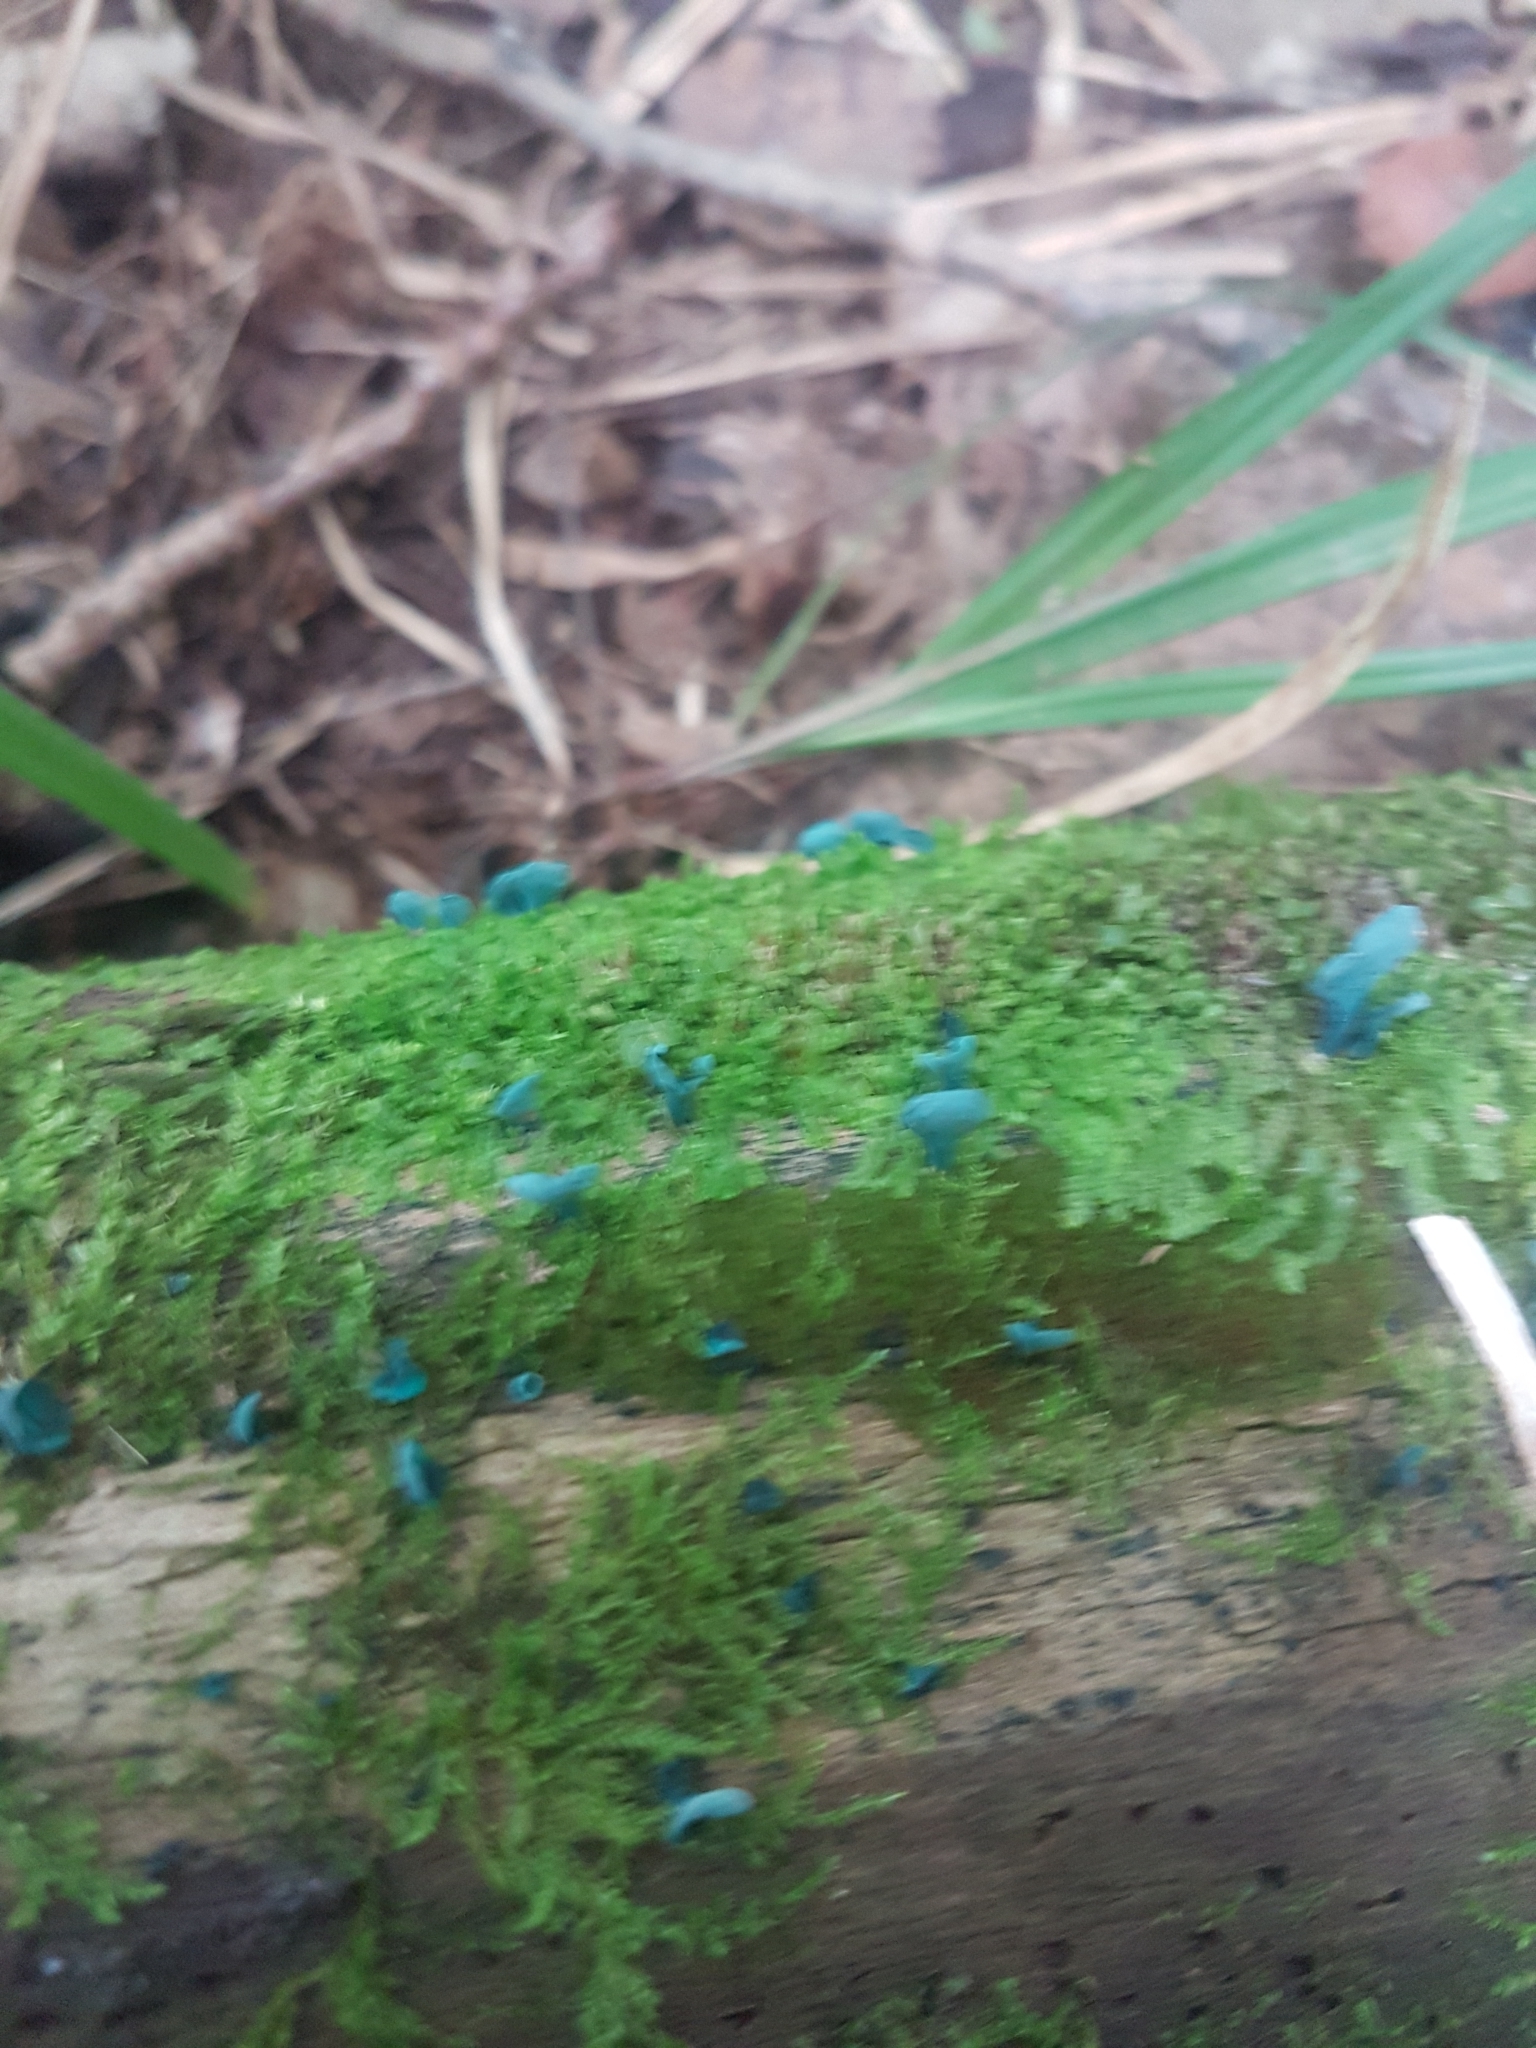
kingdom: Fungi
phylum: Ascomycota
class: Leotiomycetes
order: Helotiales
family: Chlorociboriaceae
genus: Chlorociboria
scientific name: Chlorociboria aeruginascens
